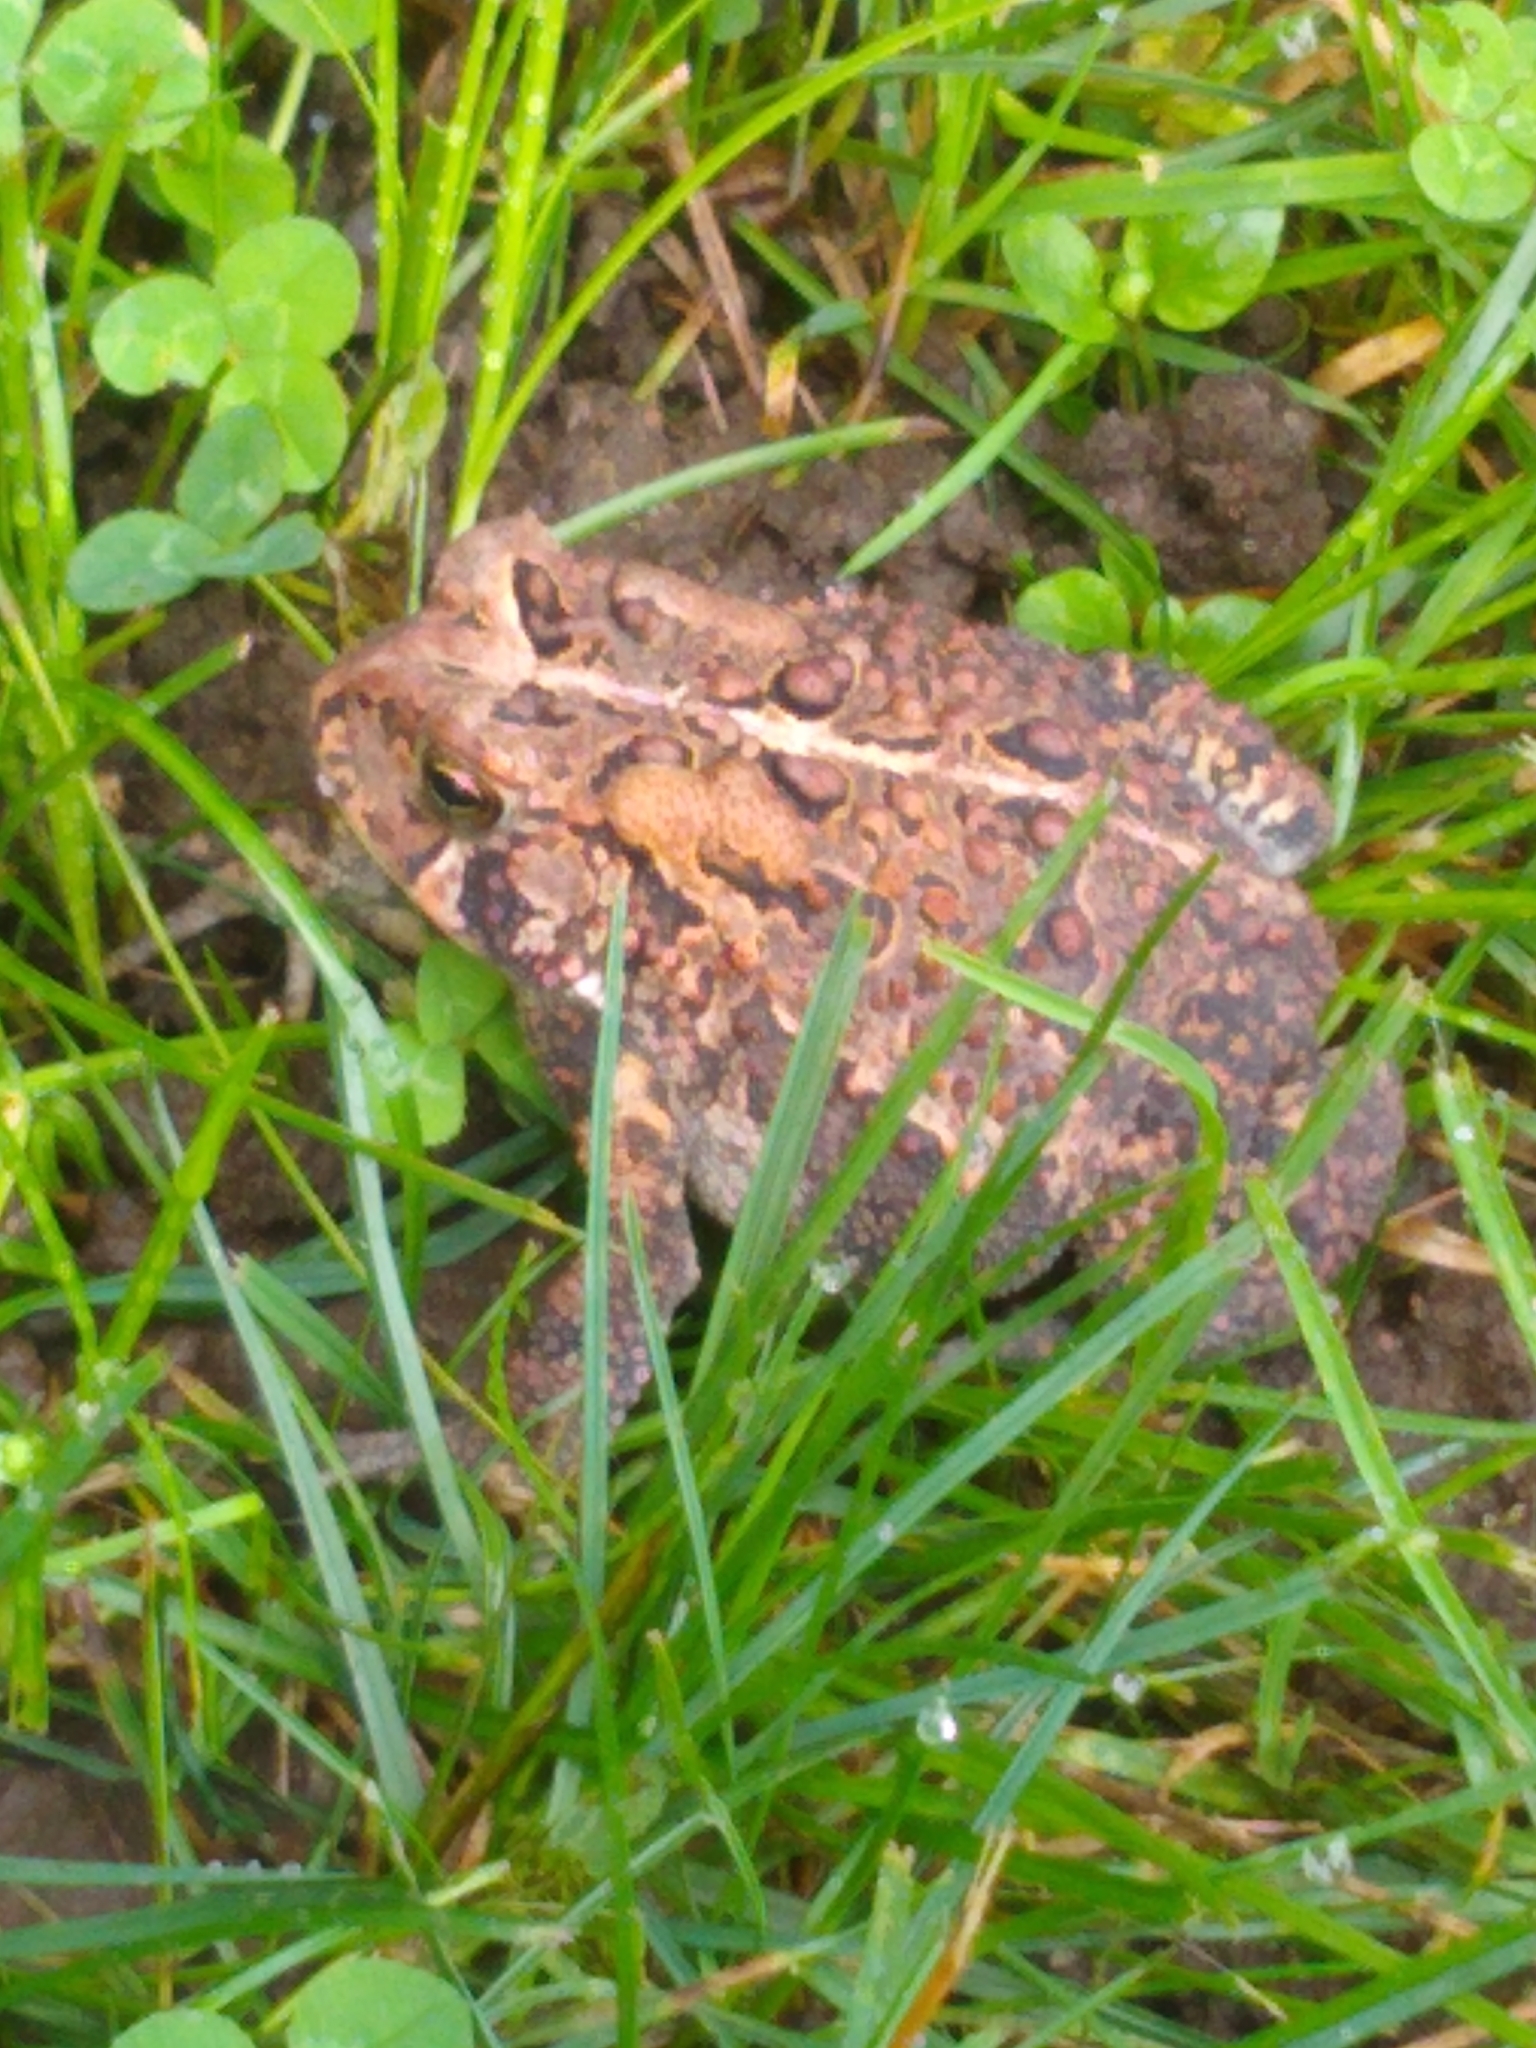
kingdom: Animalia
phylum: Chordata
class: Amphibia
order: Anura
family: Bufonidae
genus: Anaxyrus
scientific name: Anaxyrus americanus
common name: American toad
